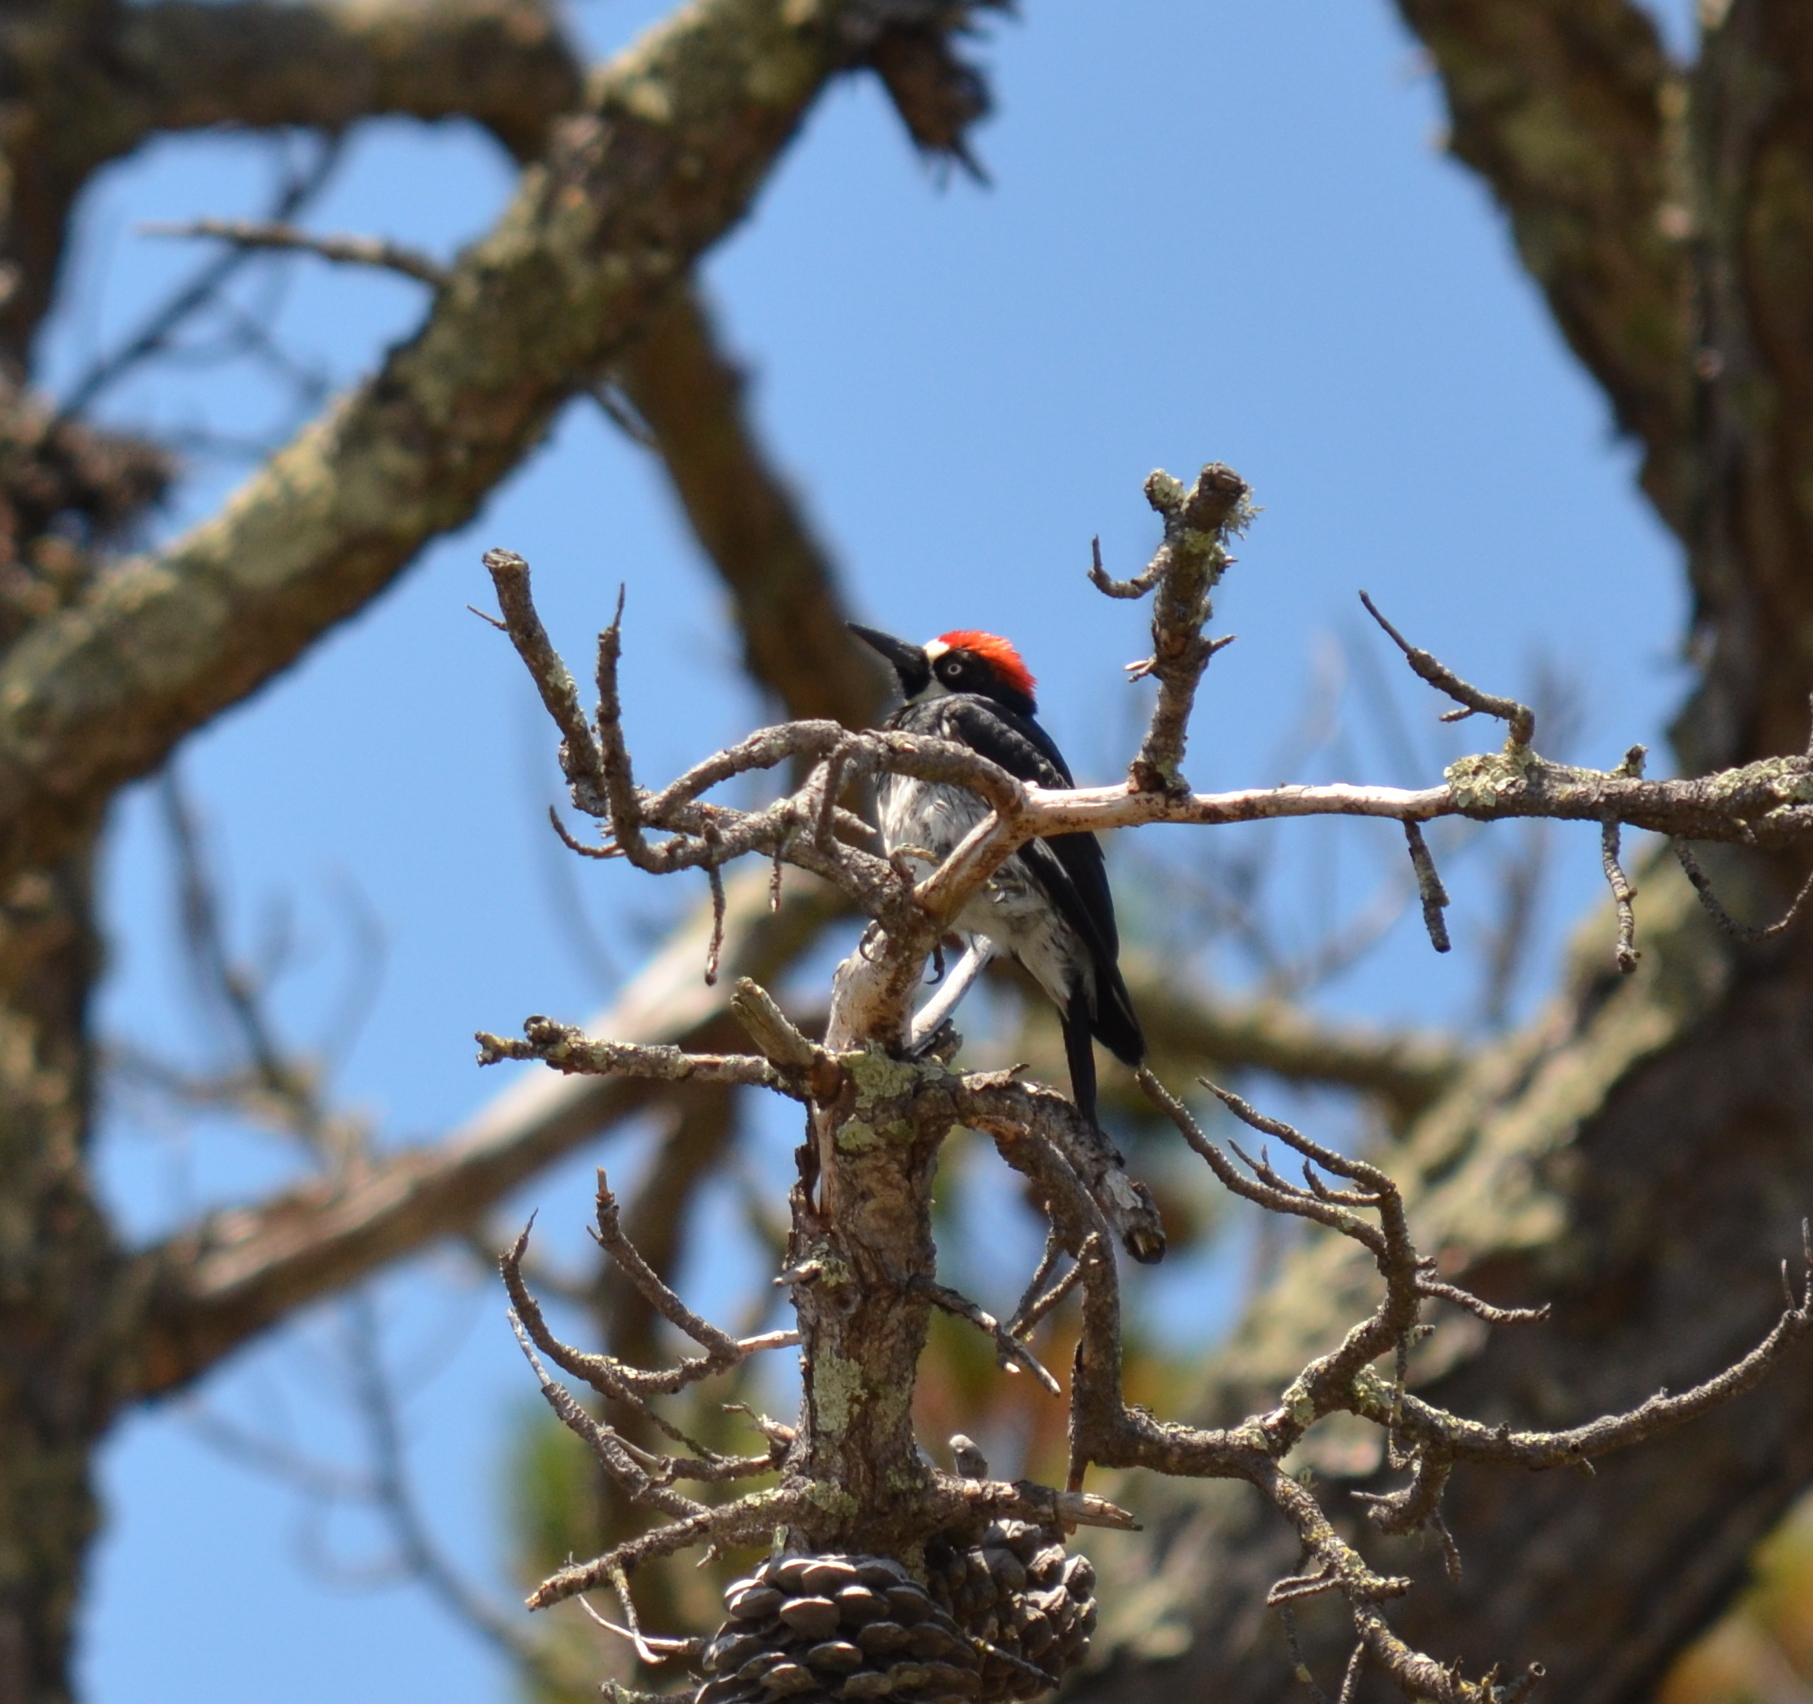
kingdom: Animalia
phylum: Chordata
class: Aves
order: Piciformes
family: Picidae
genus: Melanerpes
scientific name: Melanerpes formicivorus
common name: Acorn woodpecker
